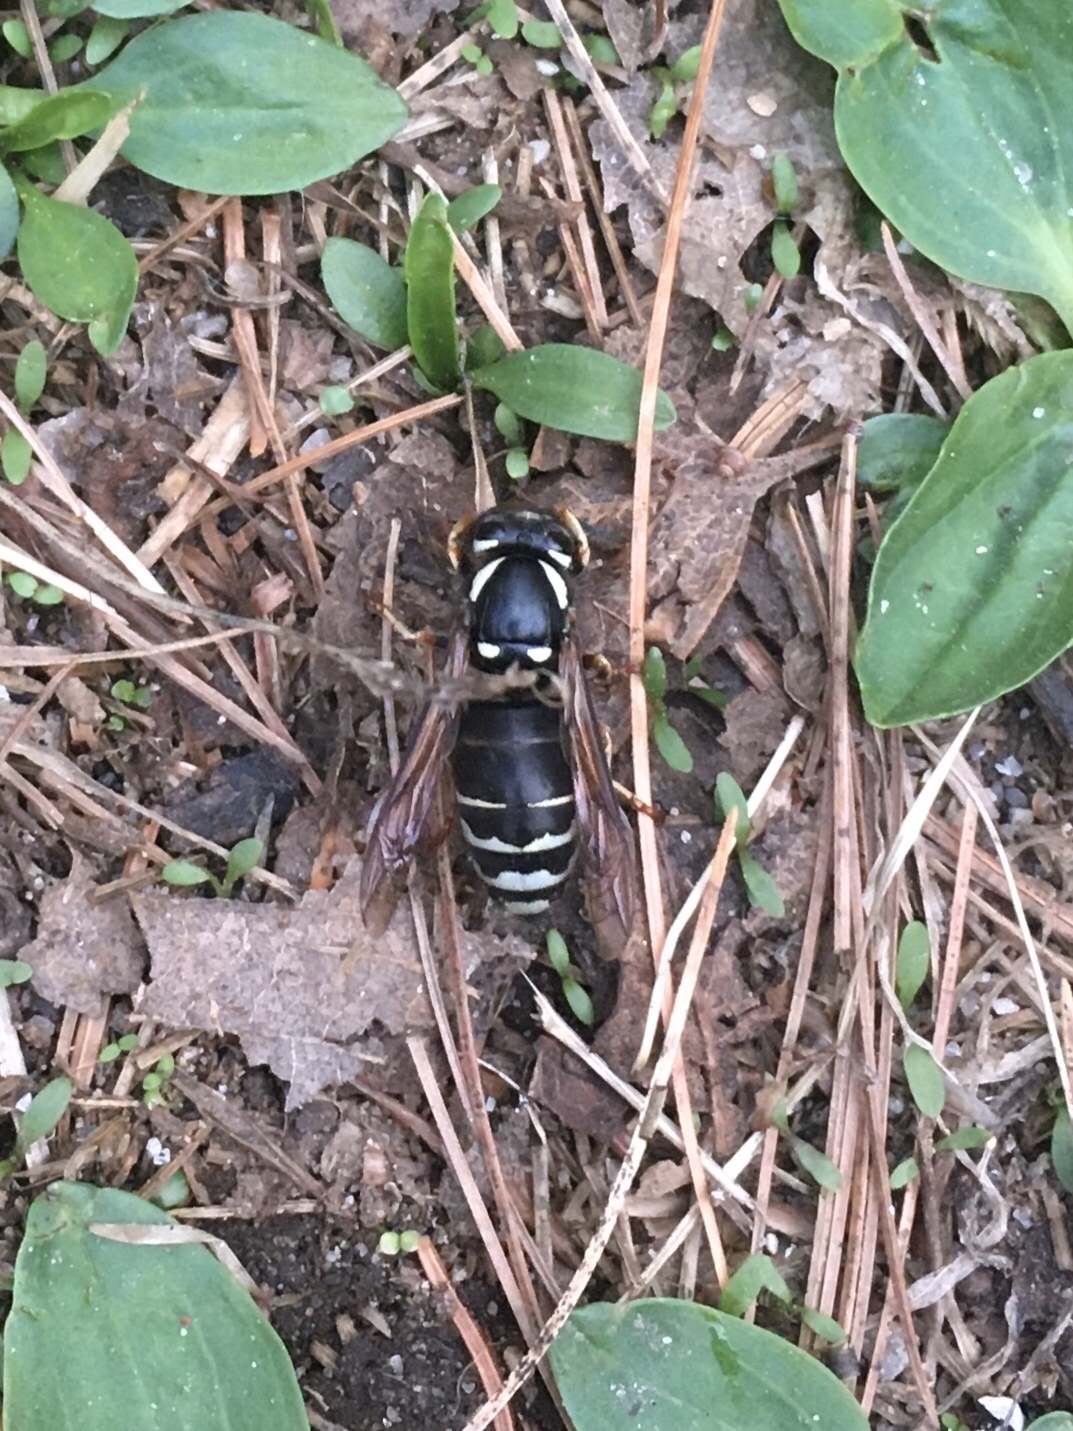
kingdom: Animalia
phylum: Arthropoda
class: Insecta
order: Hymenoptera
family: Vespidae
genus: Vespula
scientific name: Vespula consobrina
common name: Blackjacket
